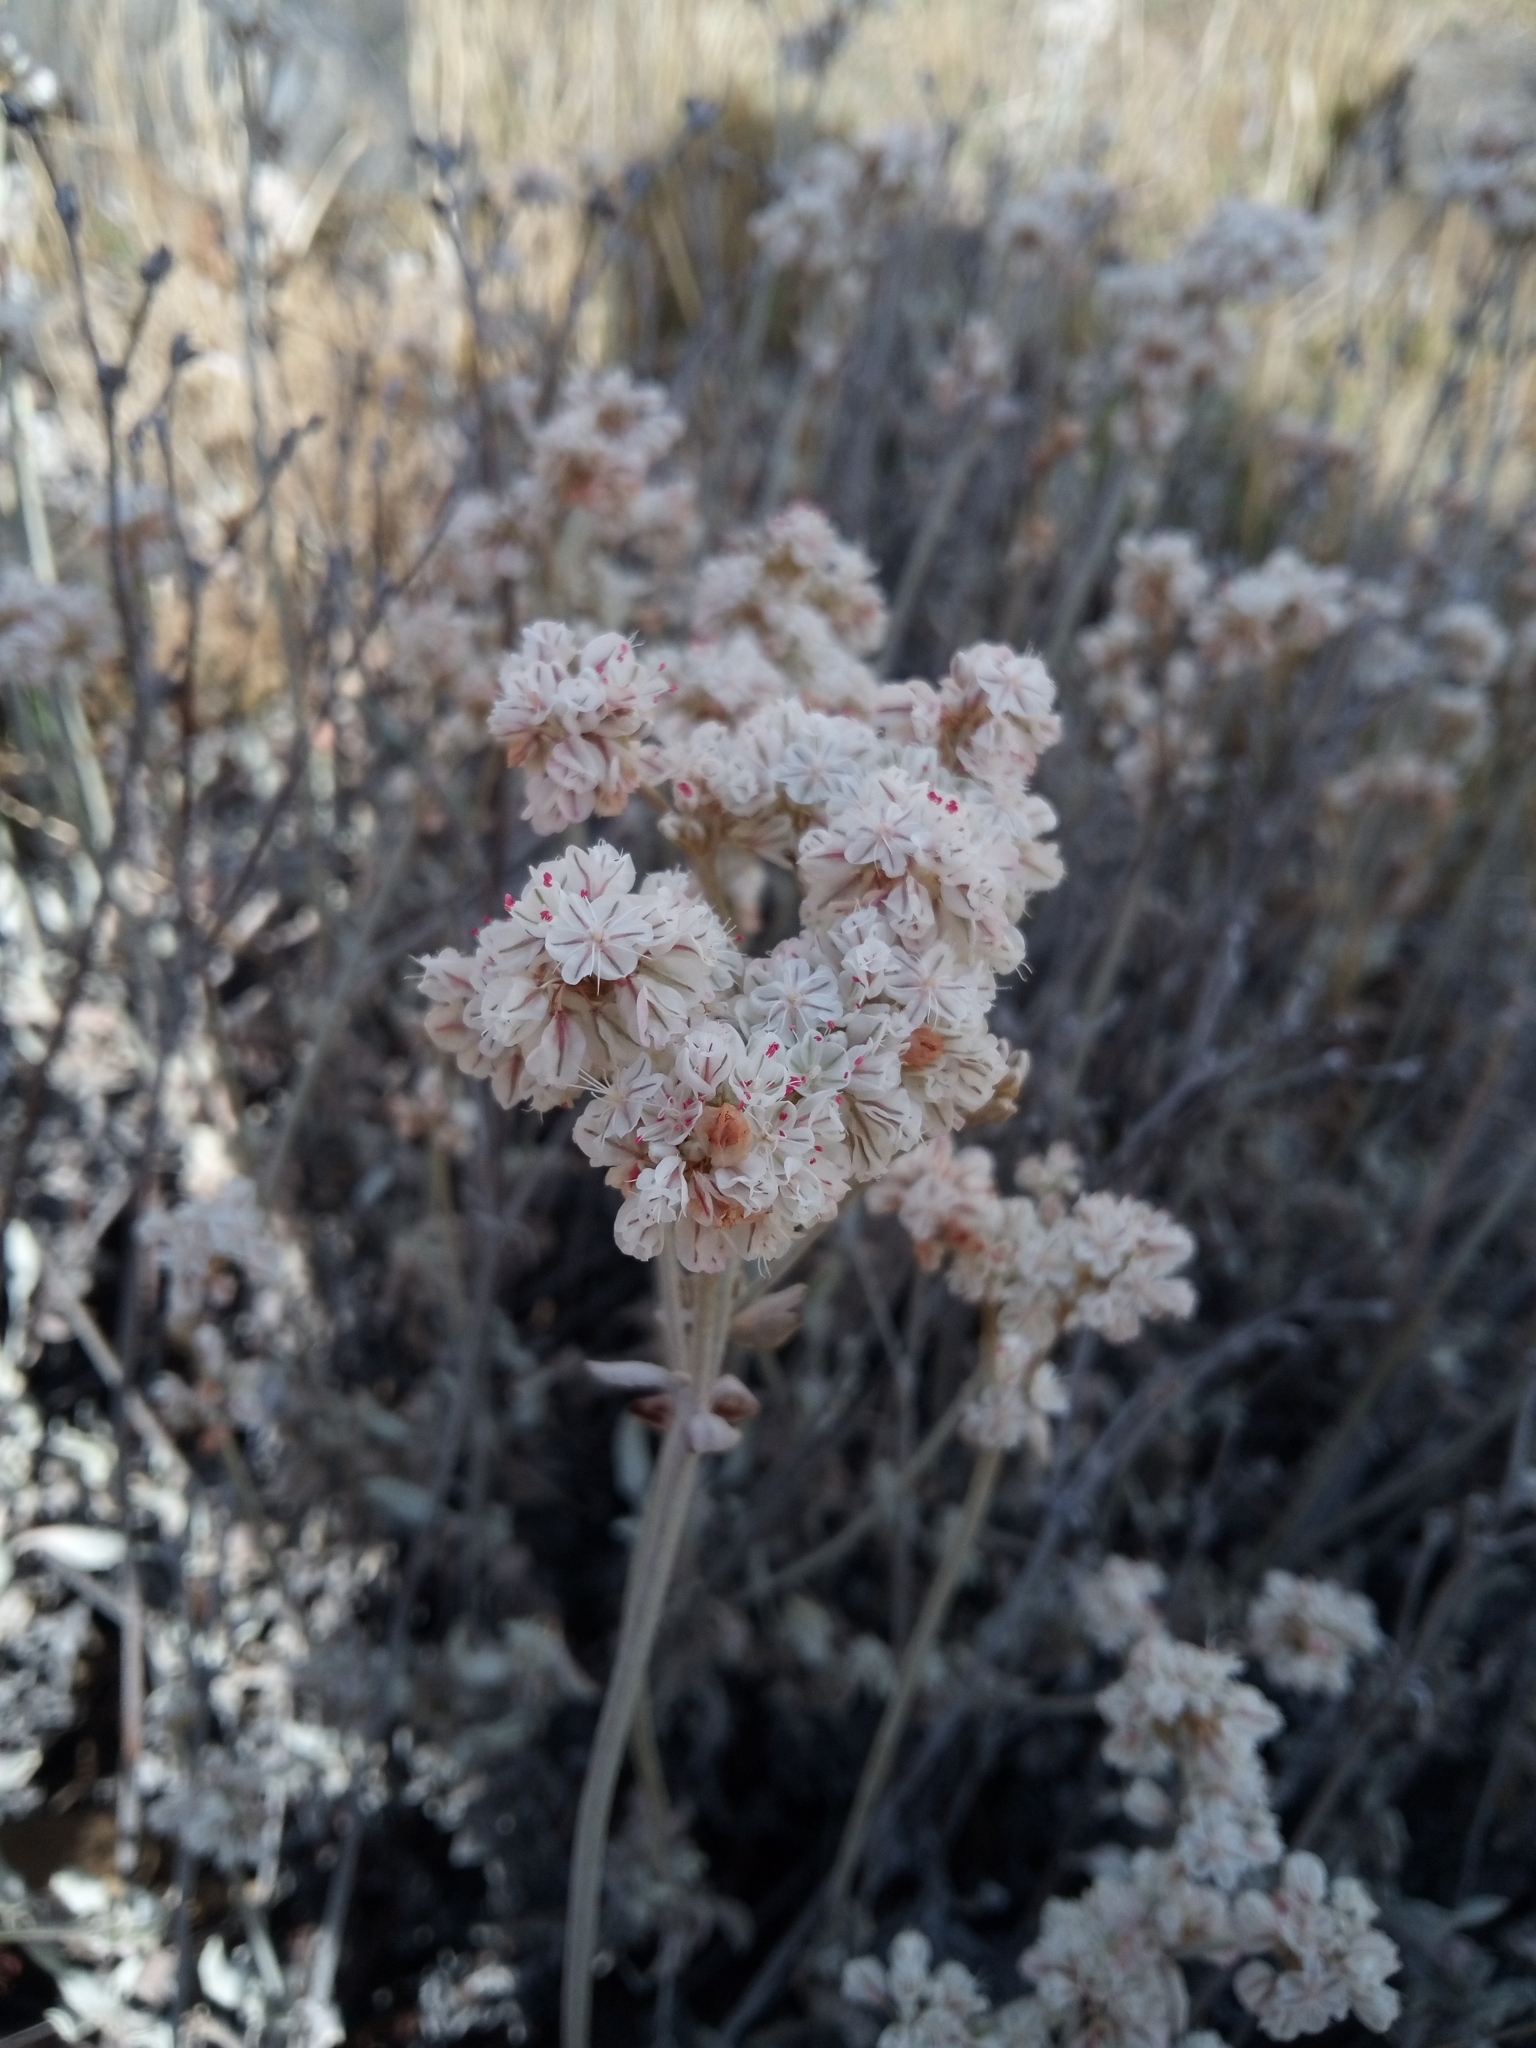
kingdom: Plantae
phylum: Tracheophyta
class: Magnoliopsida
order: Caryophyllales
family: Polygonaceae
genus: Eriogonum
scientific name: Eriogonum niveum
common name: Snow wild buckwheat
